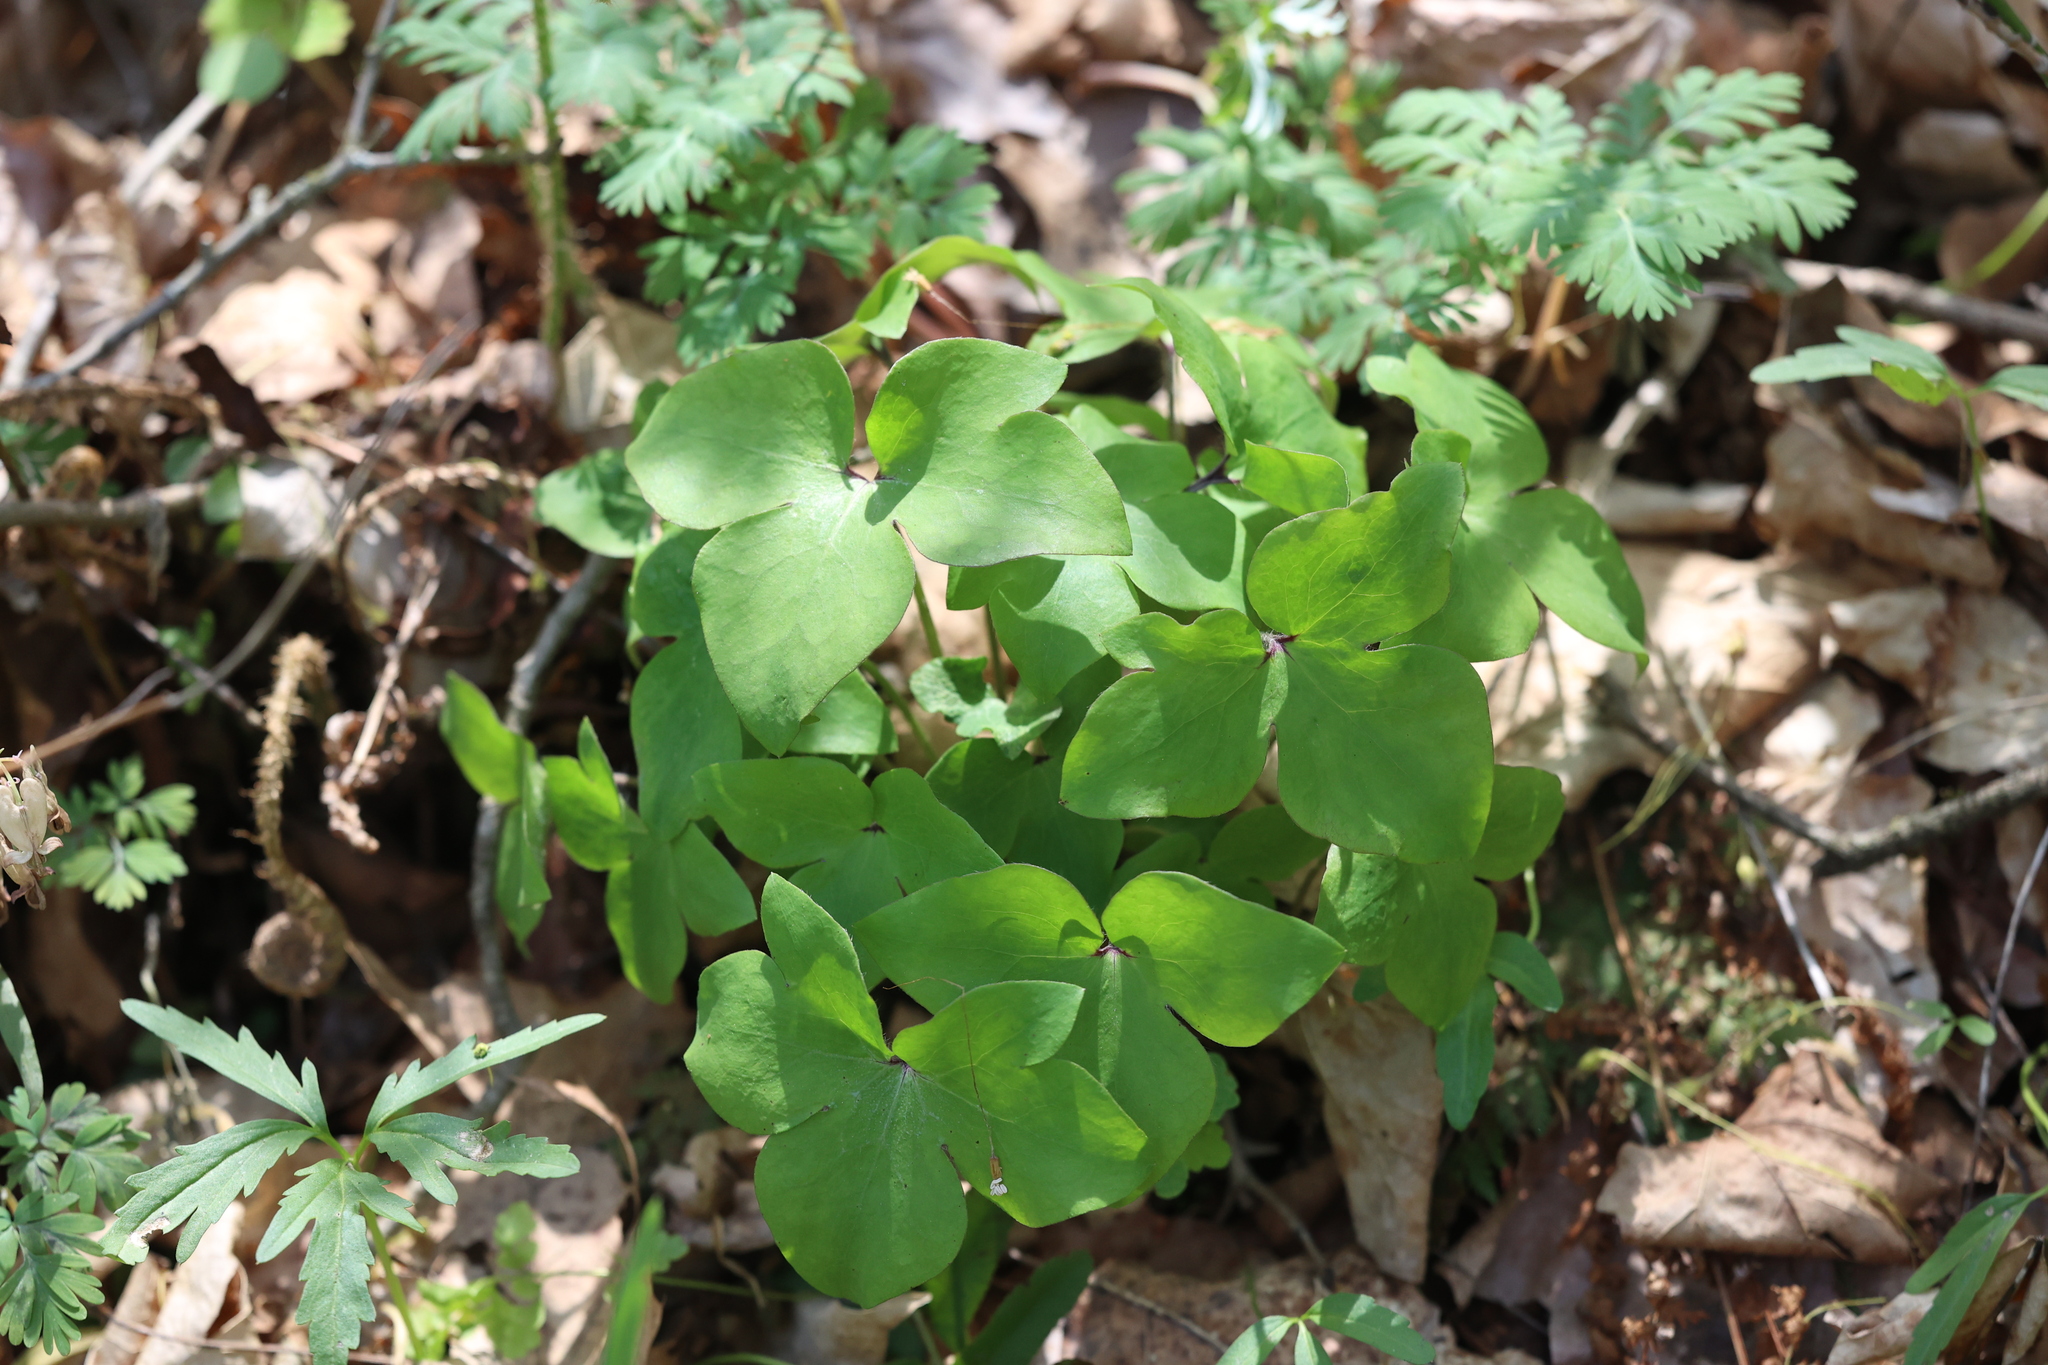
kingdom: Plantae
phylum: Tracheophyta
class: Magnoliopsida
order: Ranunculales
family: Ranunculaceae
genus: Hepatica
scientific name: Hepatica acutiloba
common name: Sharp-lobed hepatica
